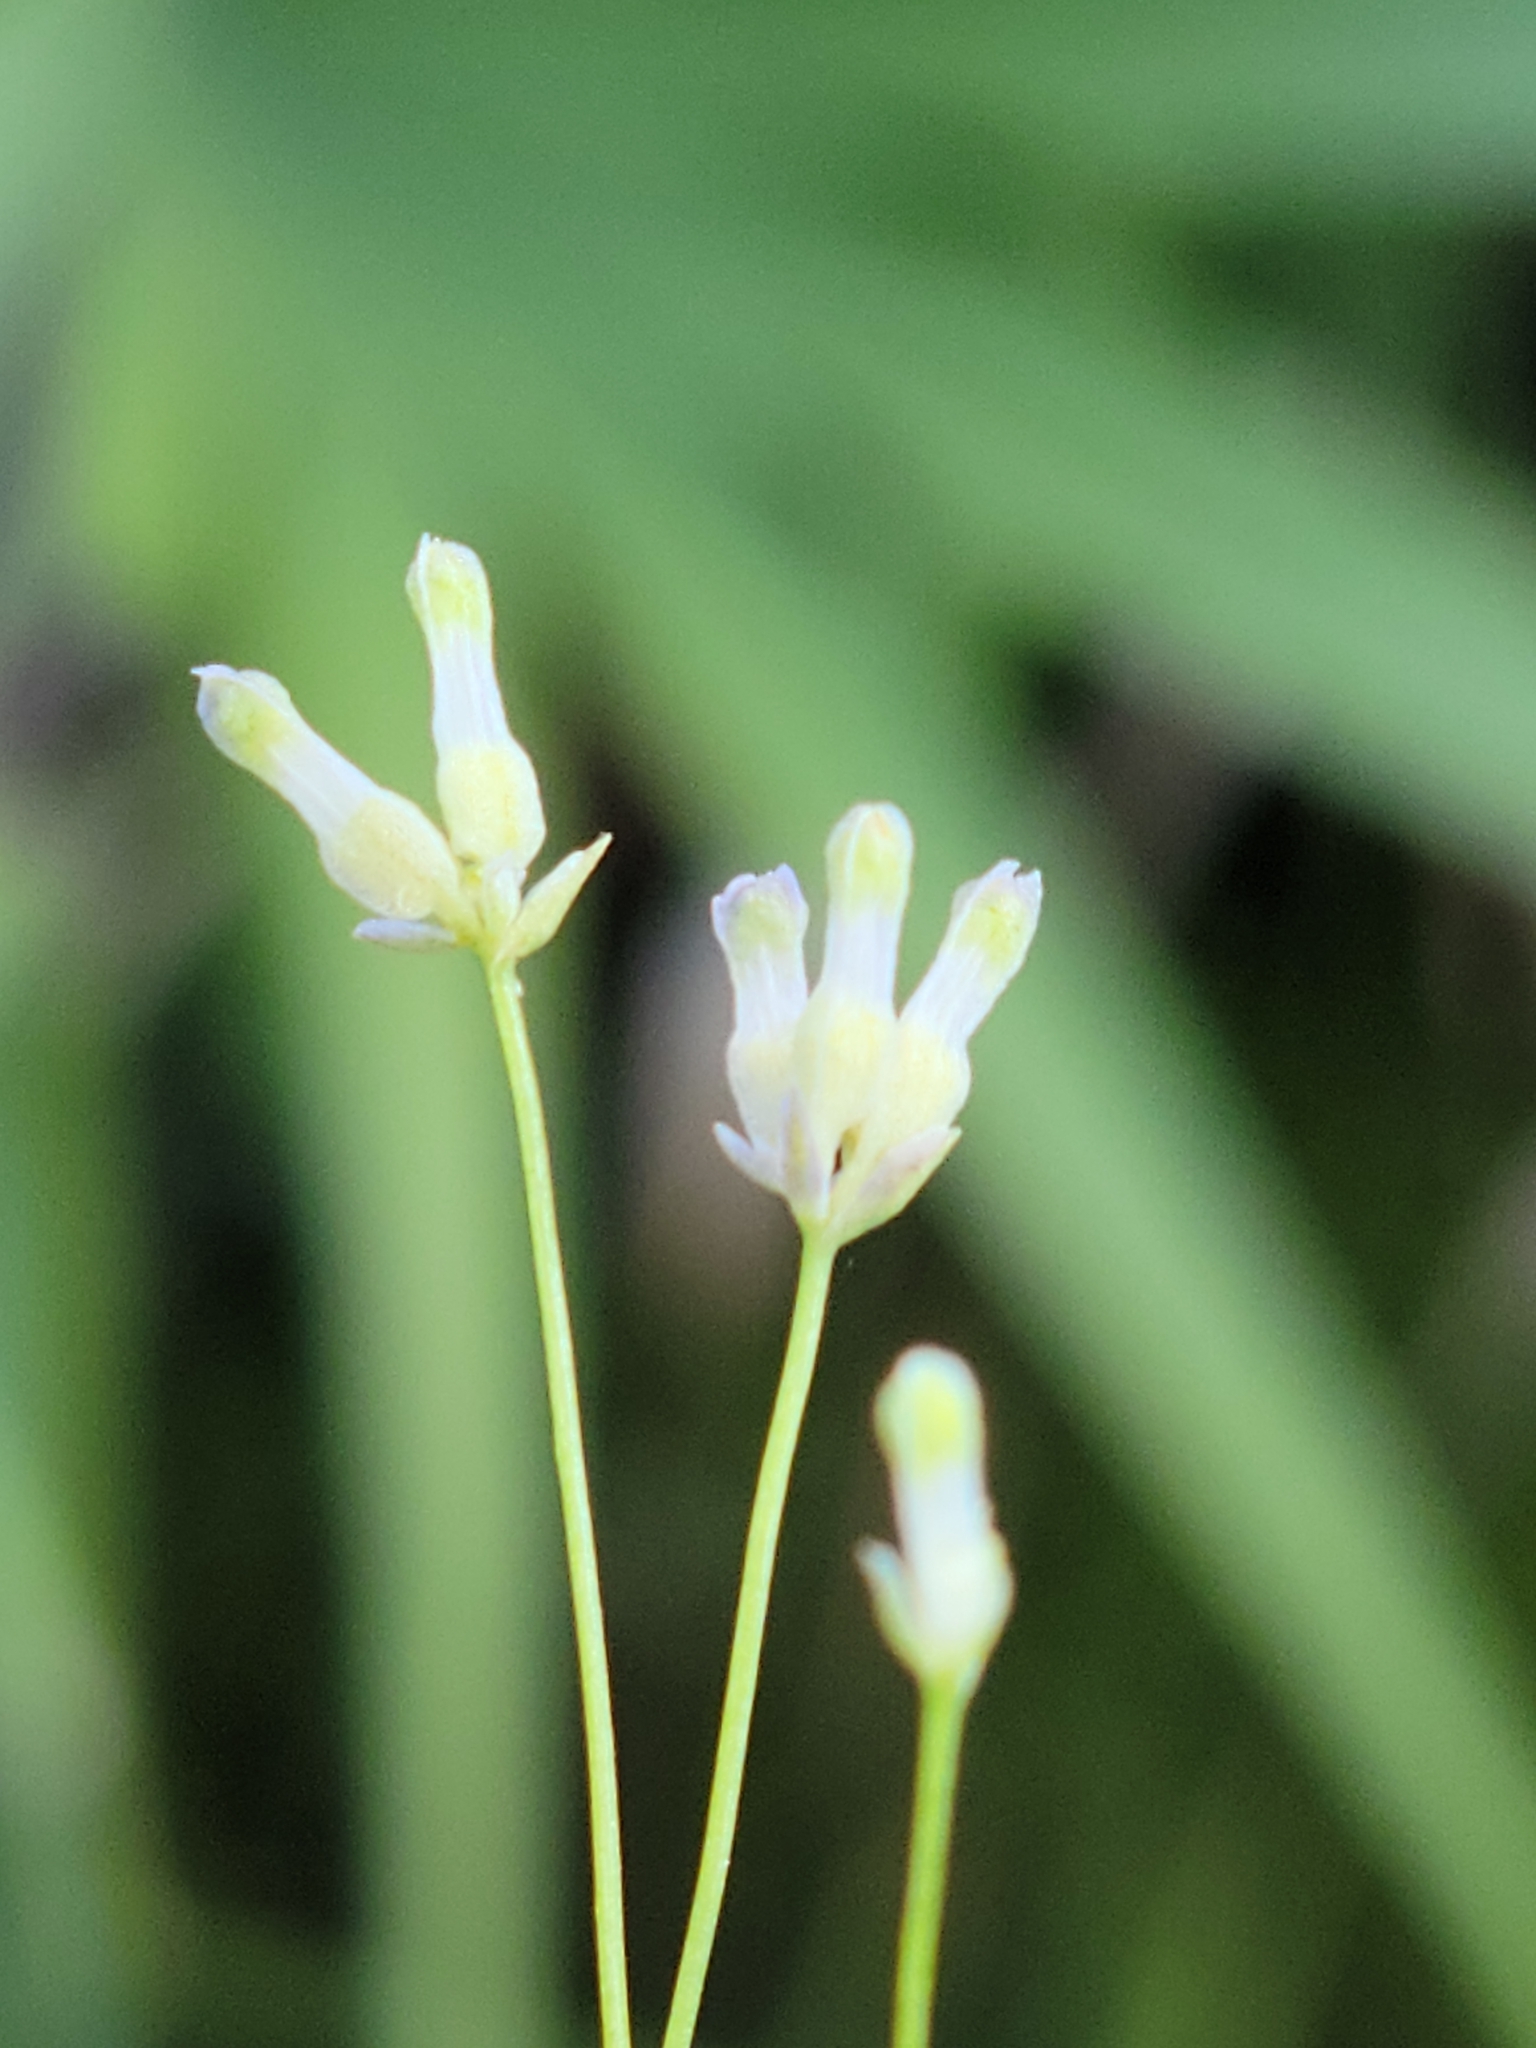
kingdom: Plantae
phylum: Tracheophyta
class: Liliopsida
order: Dioscoreales
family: Burmanniaceae
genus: Burmannia
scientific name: Burmannia capitata
